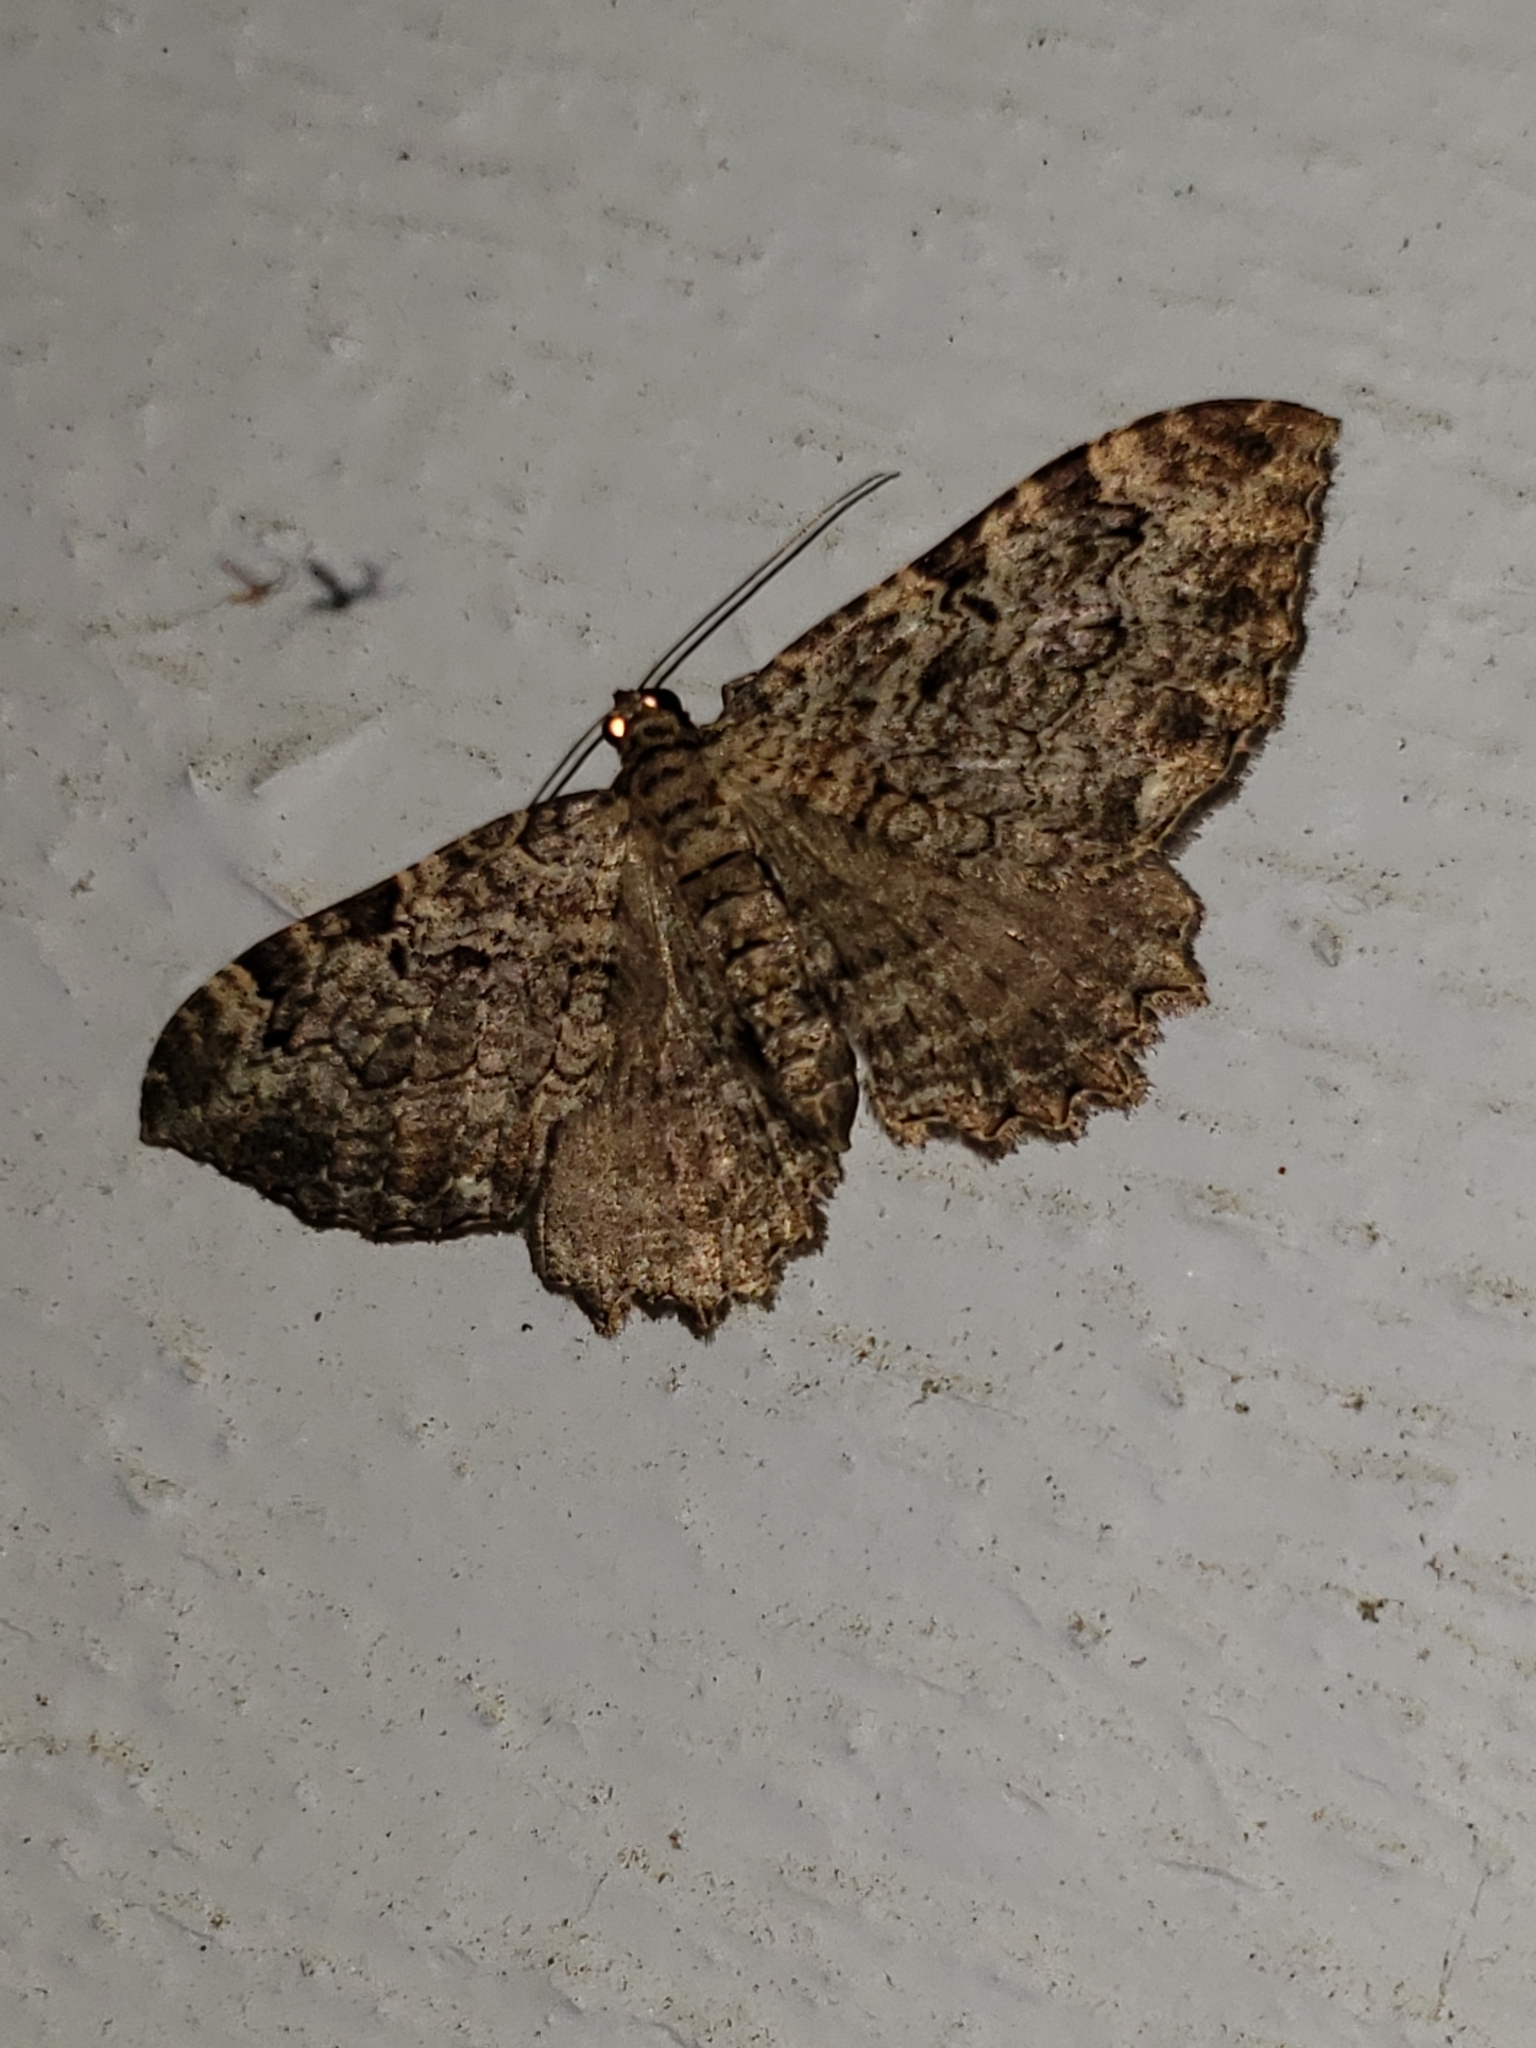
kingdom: Animalia
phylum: Arthropoda
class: Insecta
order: Lepidoptera
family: Geometridae
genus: Rheumaptera
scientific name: Rheumaptera
